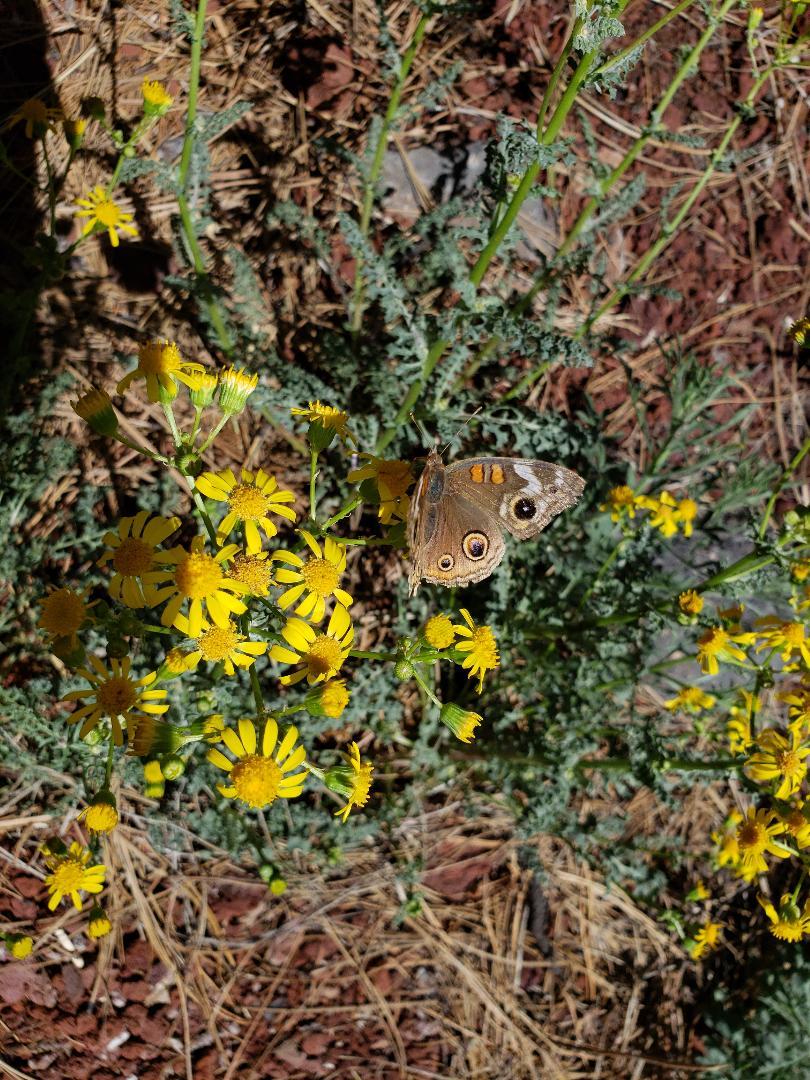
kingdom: Animalia
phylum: Arthropoda
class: Insecta
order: Lepidoptera
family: Nymphalidae
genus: Junonia
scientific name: Junonia grisea
